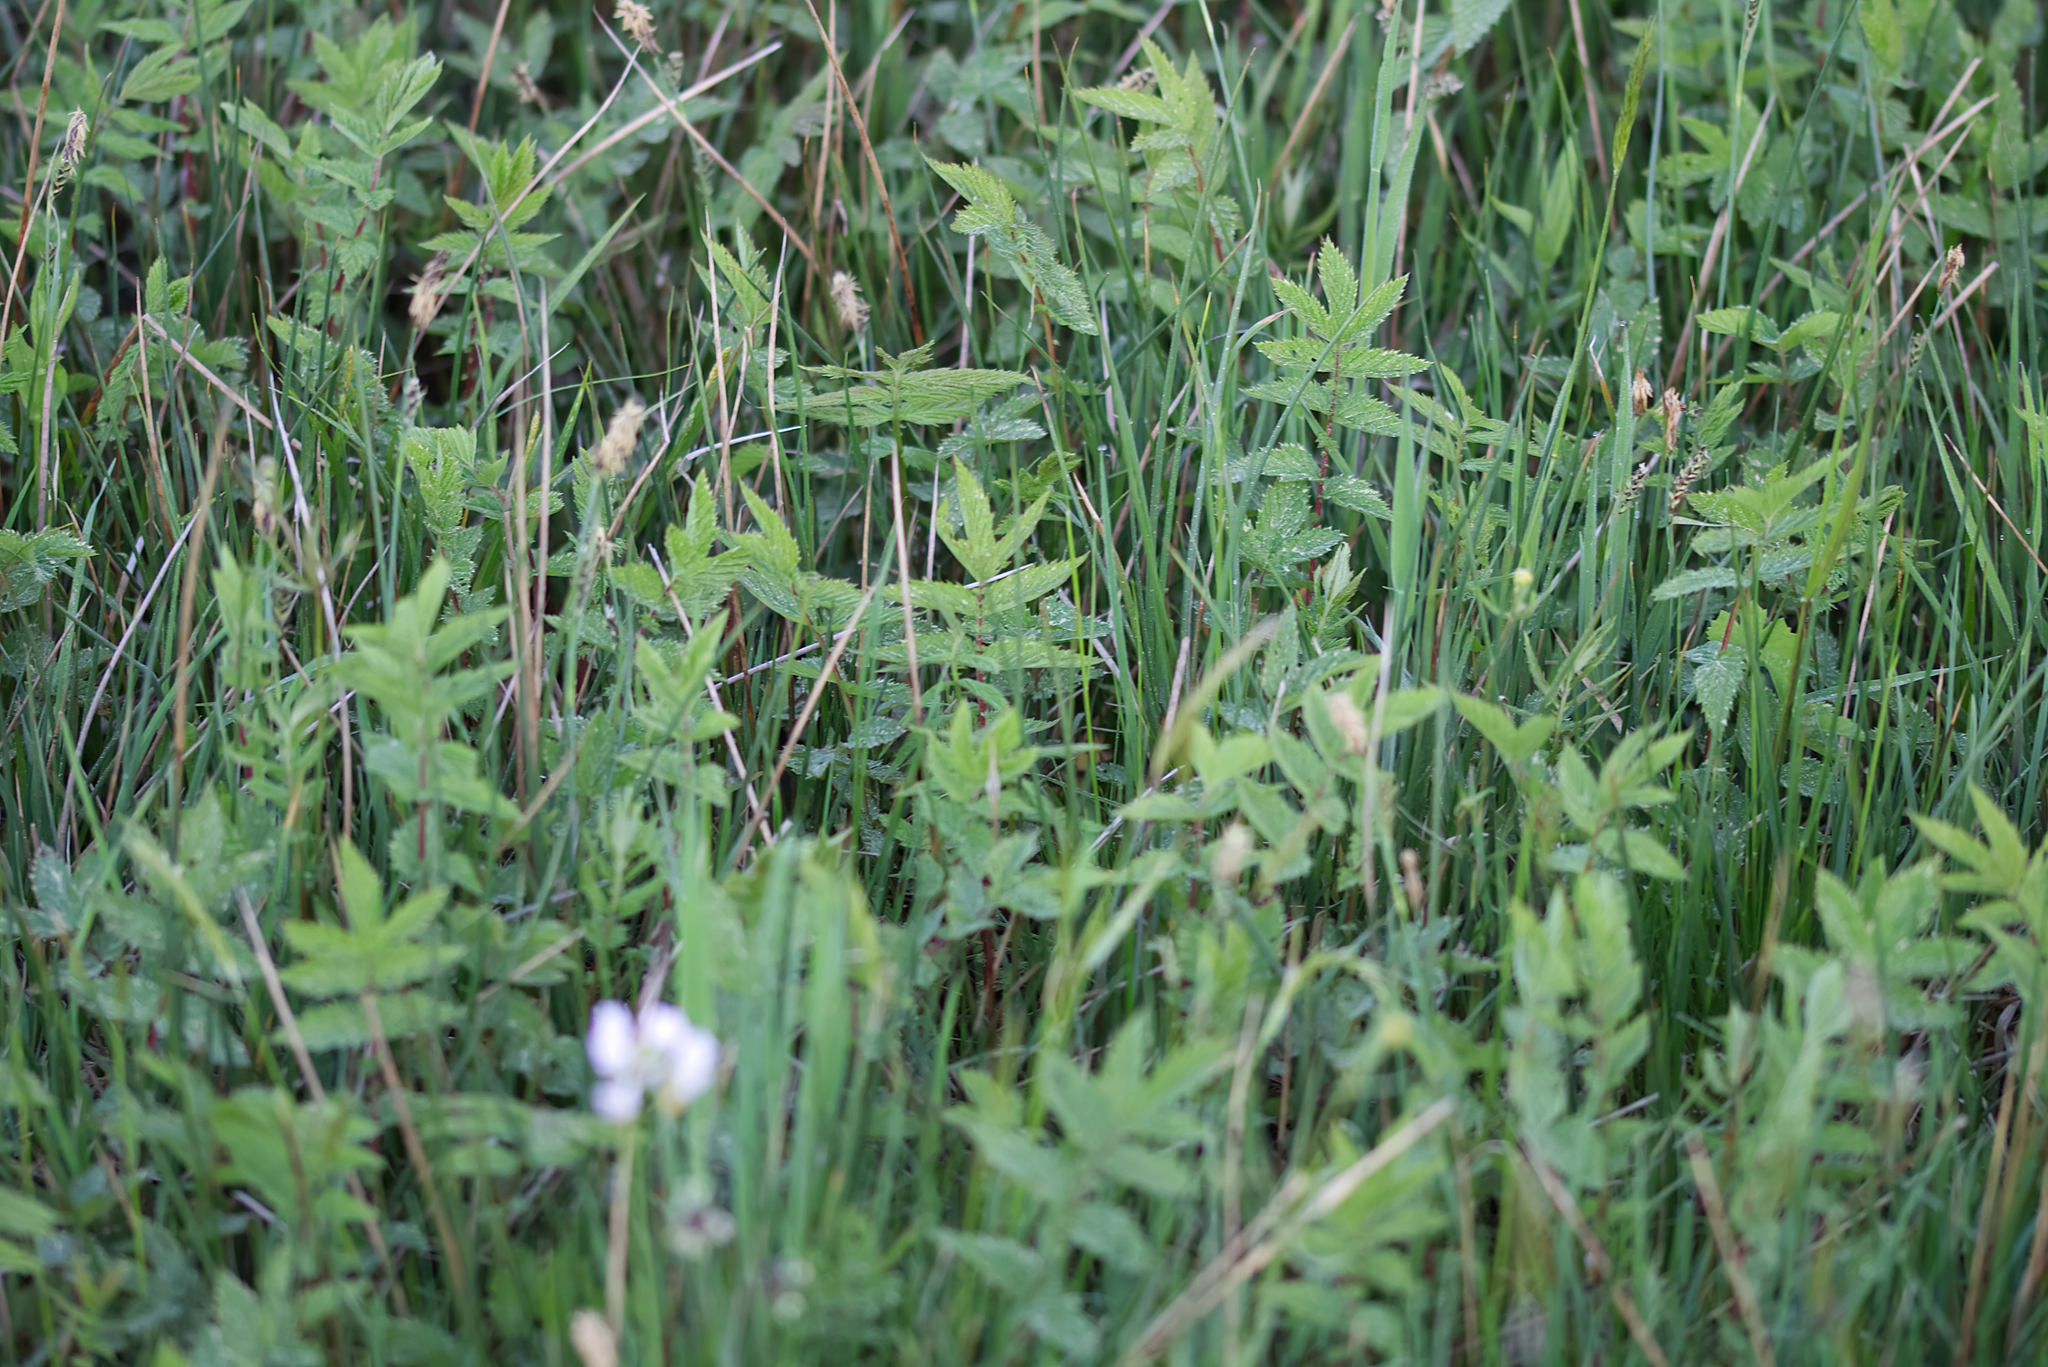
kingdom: Plantae
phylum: Tracheophyta
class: Magnoliopsida
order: Rosales
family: Rosaceae
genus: Filipendula
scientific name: Filipendula ulmaria
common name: Meadowsweet
